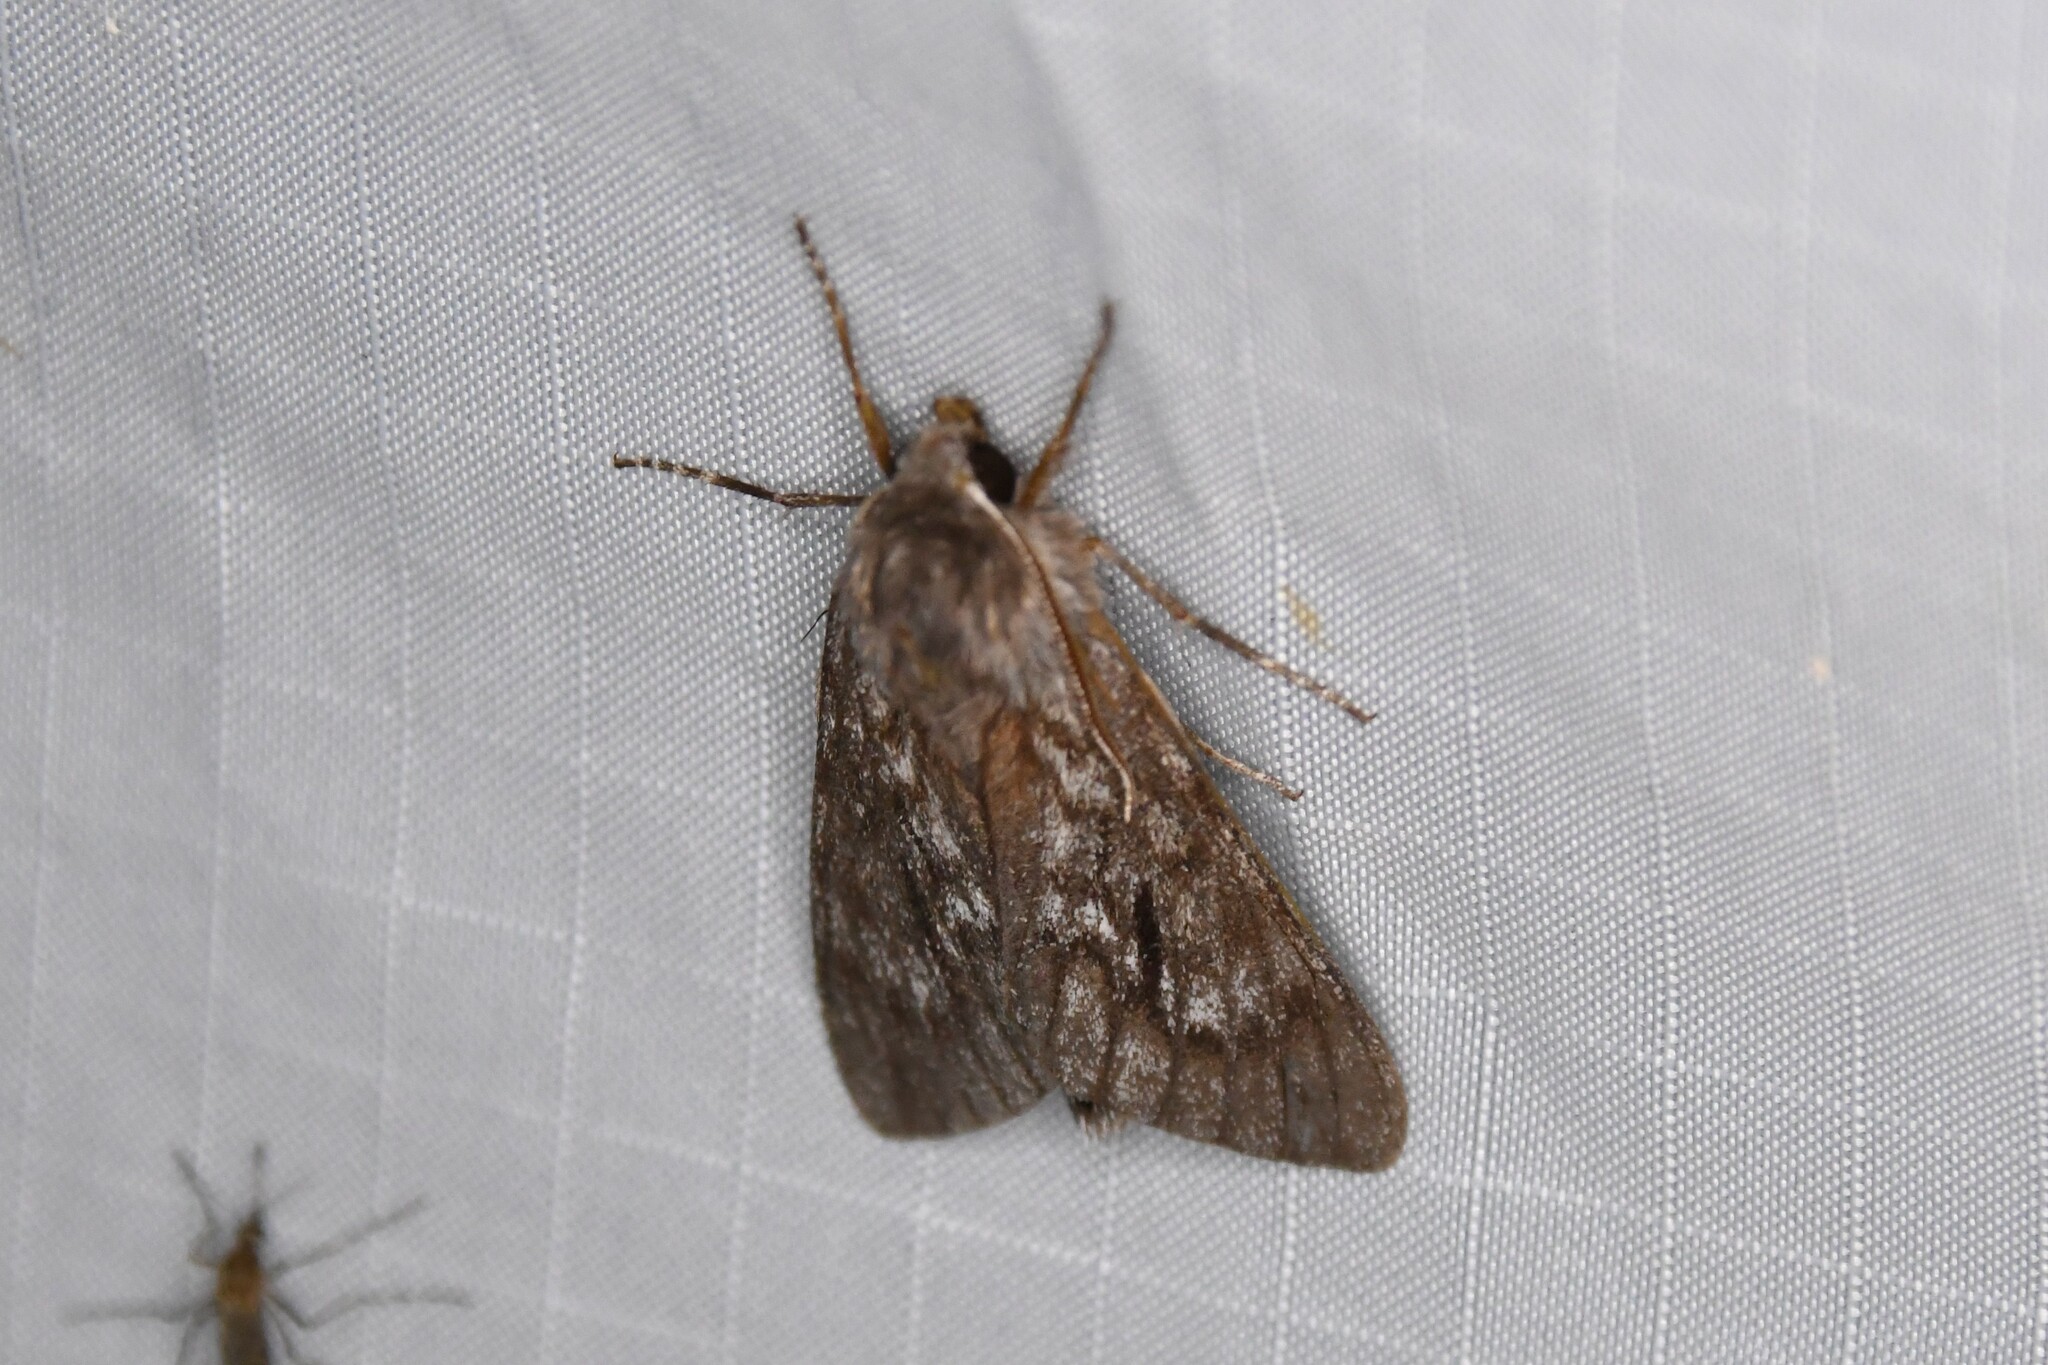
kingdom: Animalia
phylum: Arthropoda
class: Insecta
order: Lepidoptera
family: Sphingidae
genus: Lapara
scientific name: Lapara bombycoides
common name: Northern pine sphinx
